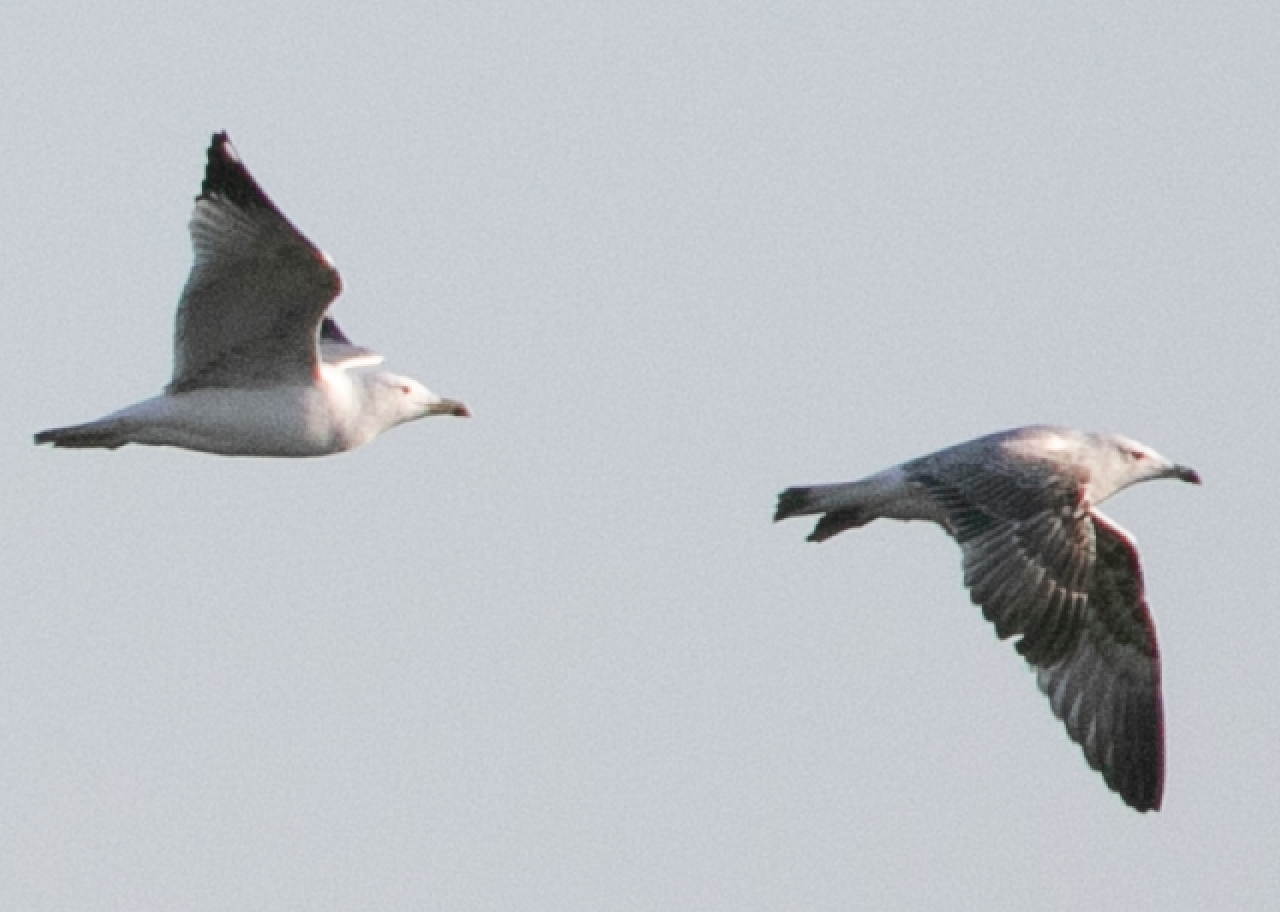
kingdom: Animalia
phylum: Chordata
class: Aves
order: Charadriiformes
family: Laridae
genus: Larus
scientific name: Larus michahellis
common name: Yellow-legged gull
